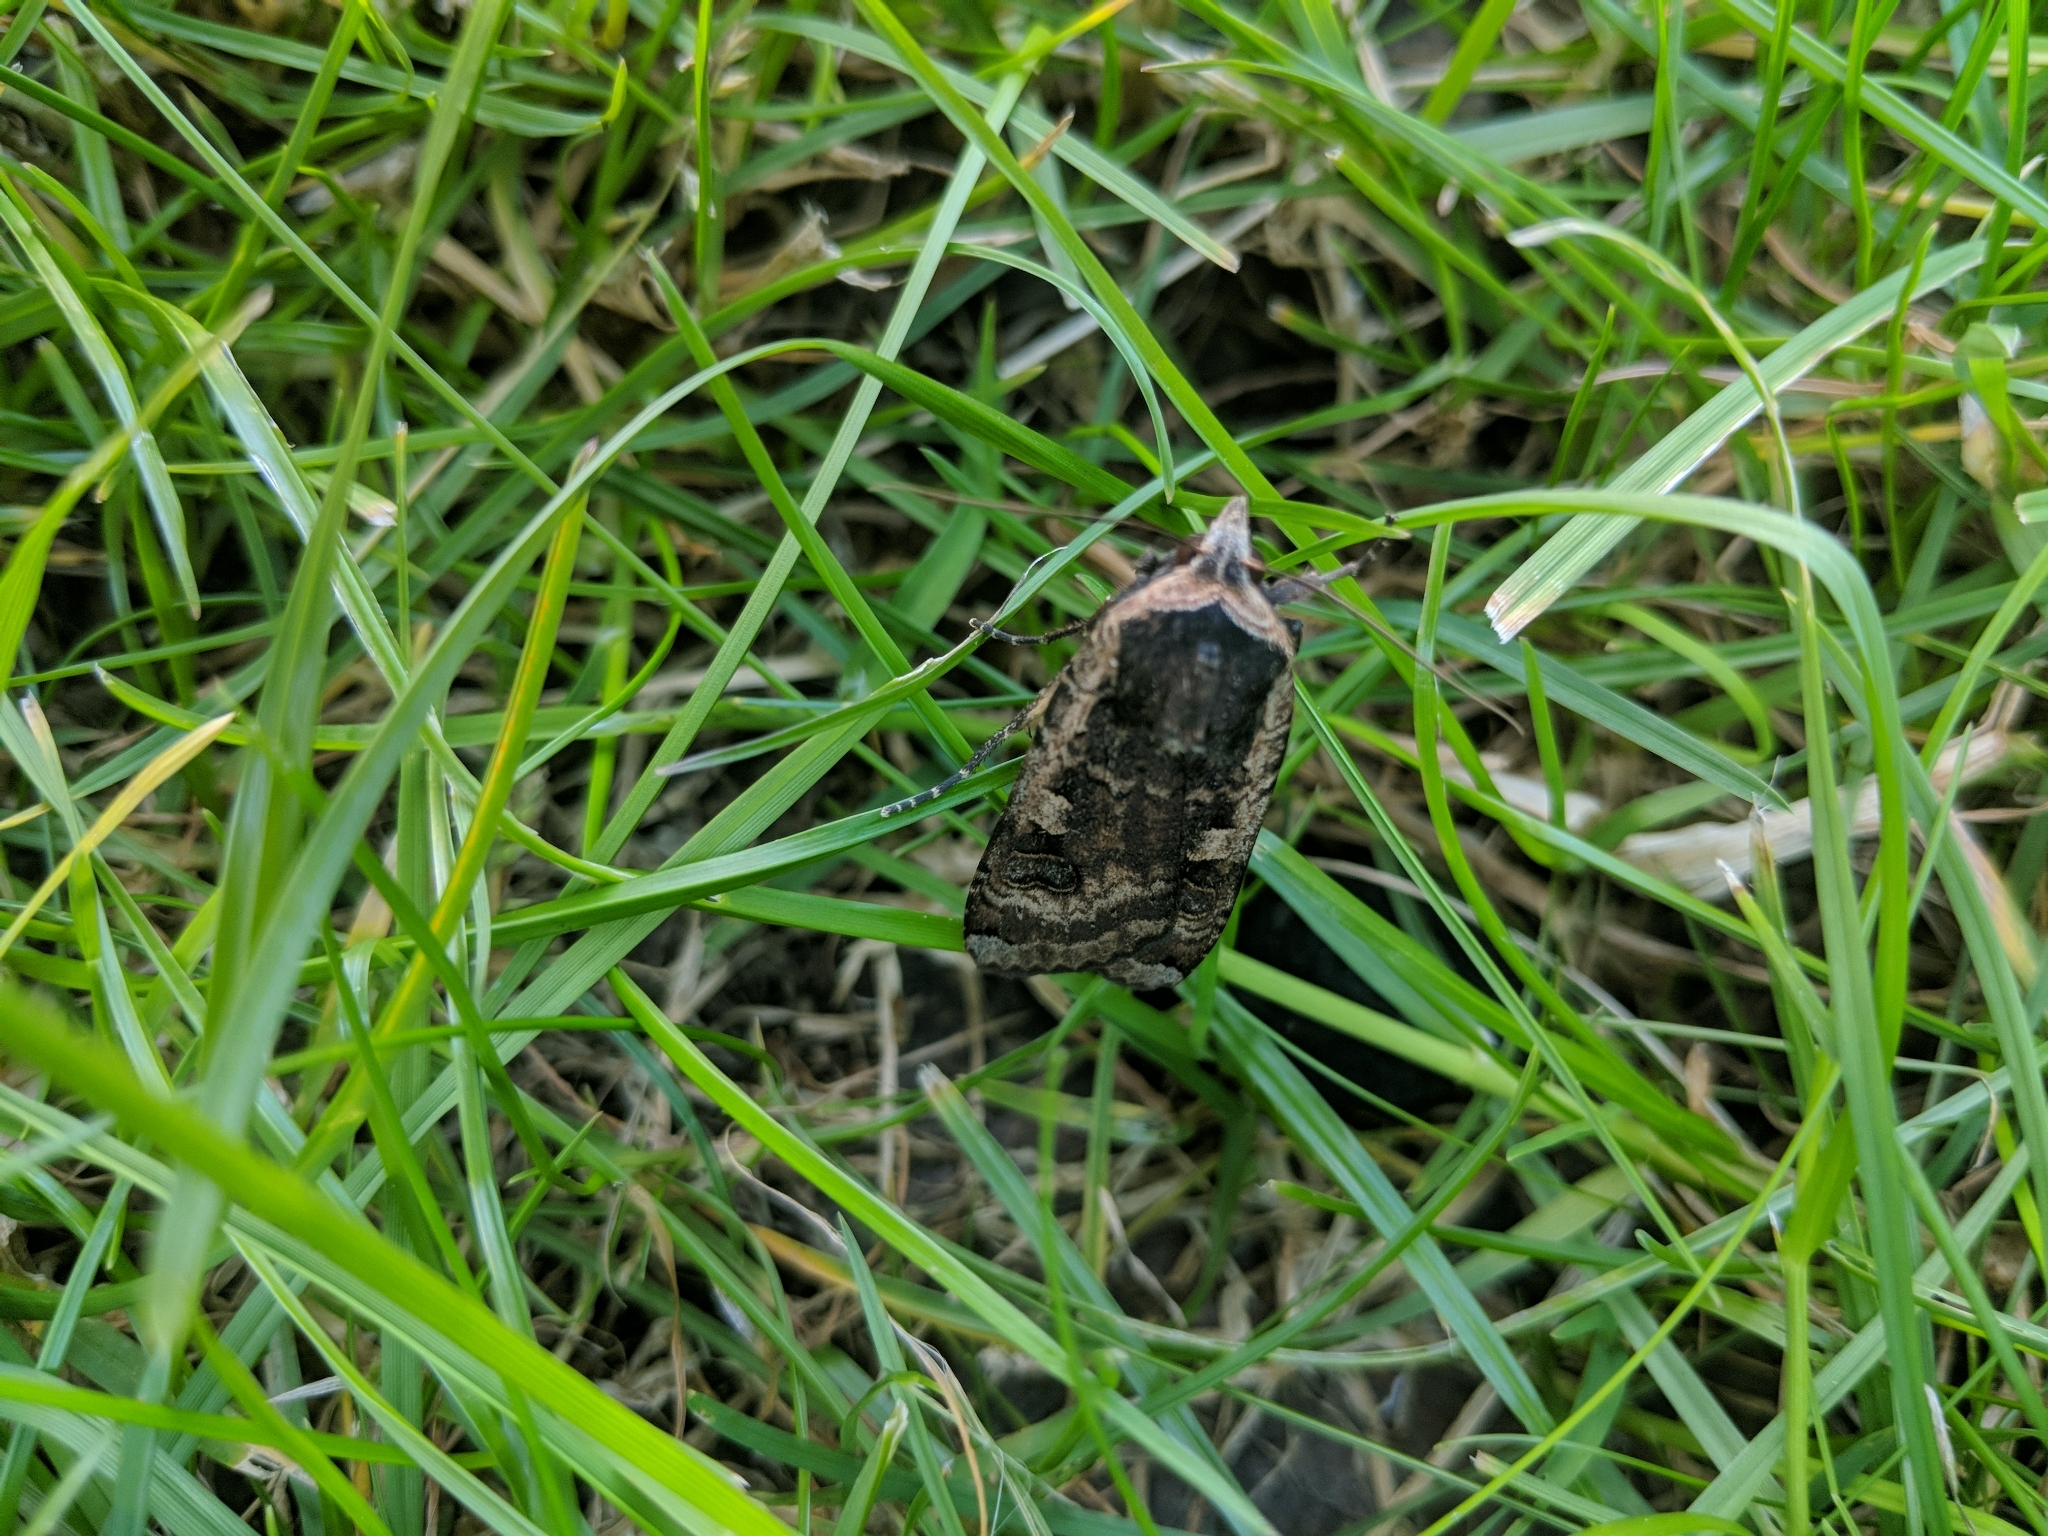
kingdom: Animalia
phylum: Arthropoda
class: Insecta
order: Lepidoptera
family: Noctuidae
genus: Noctua
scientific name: Noctua pronuba
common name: Large yellow underwing
